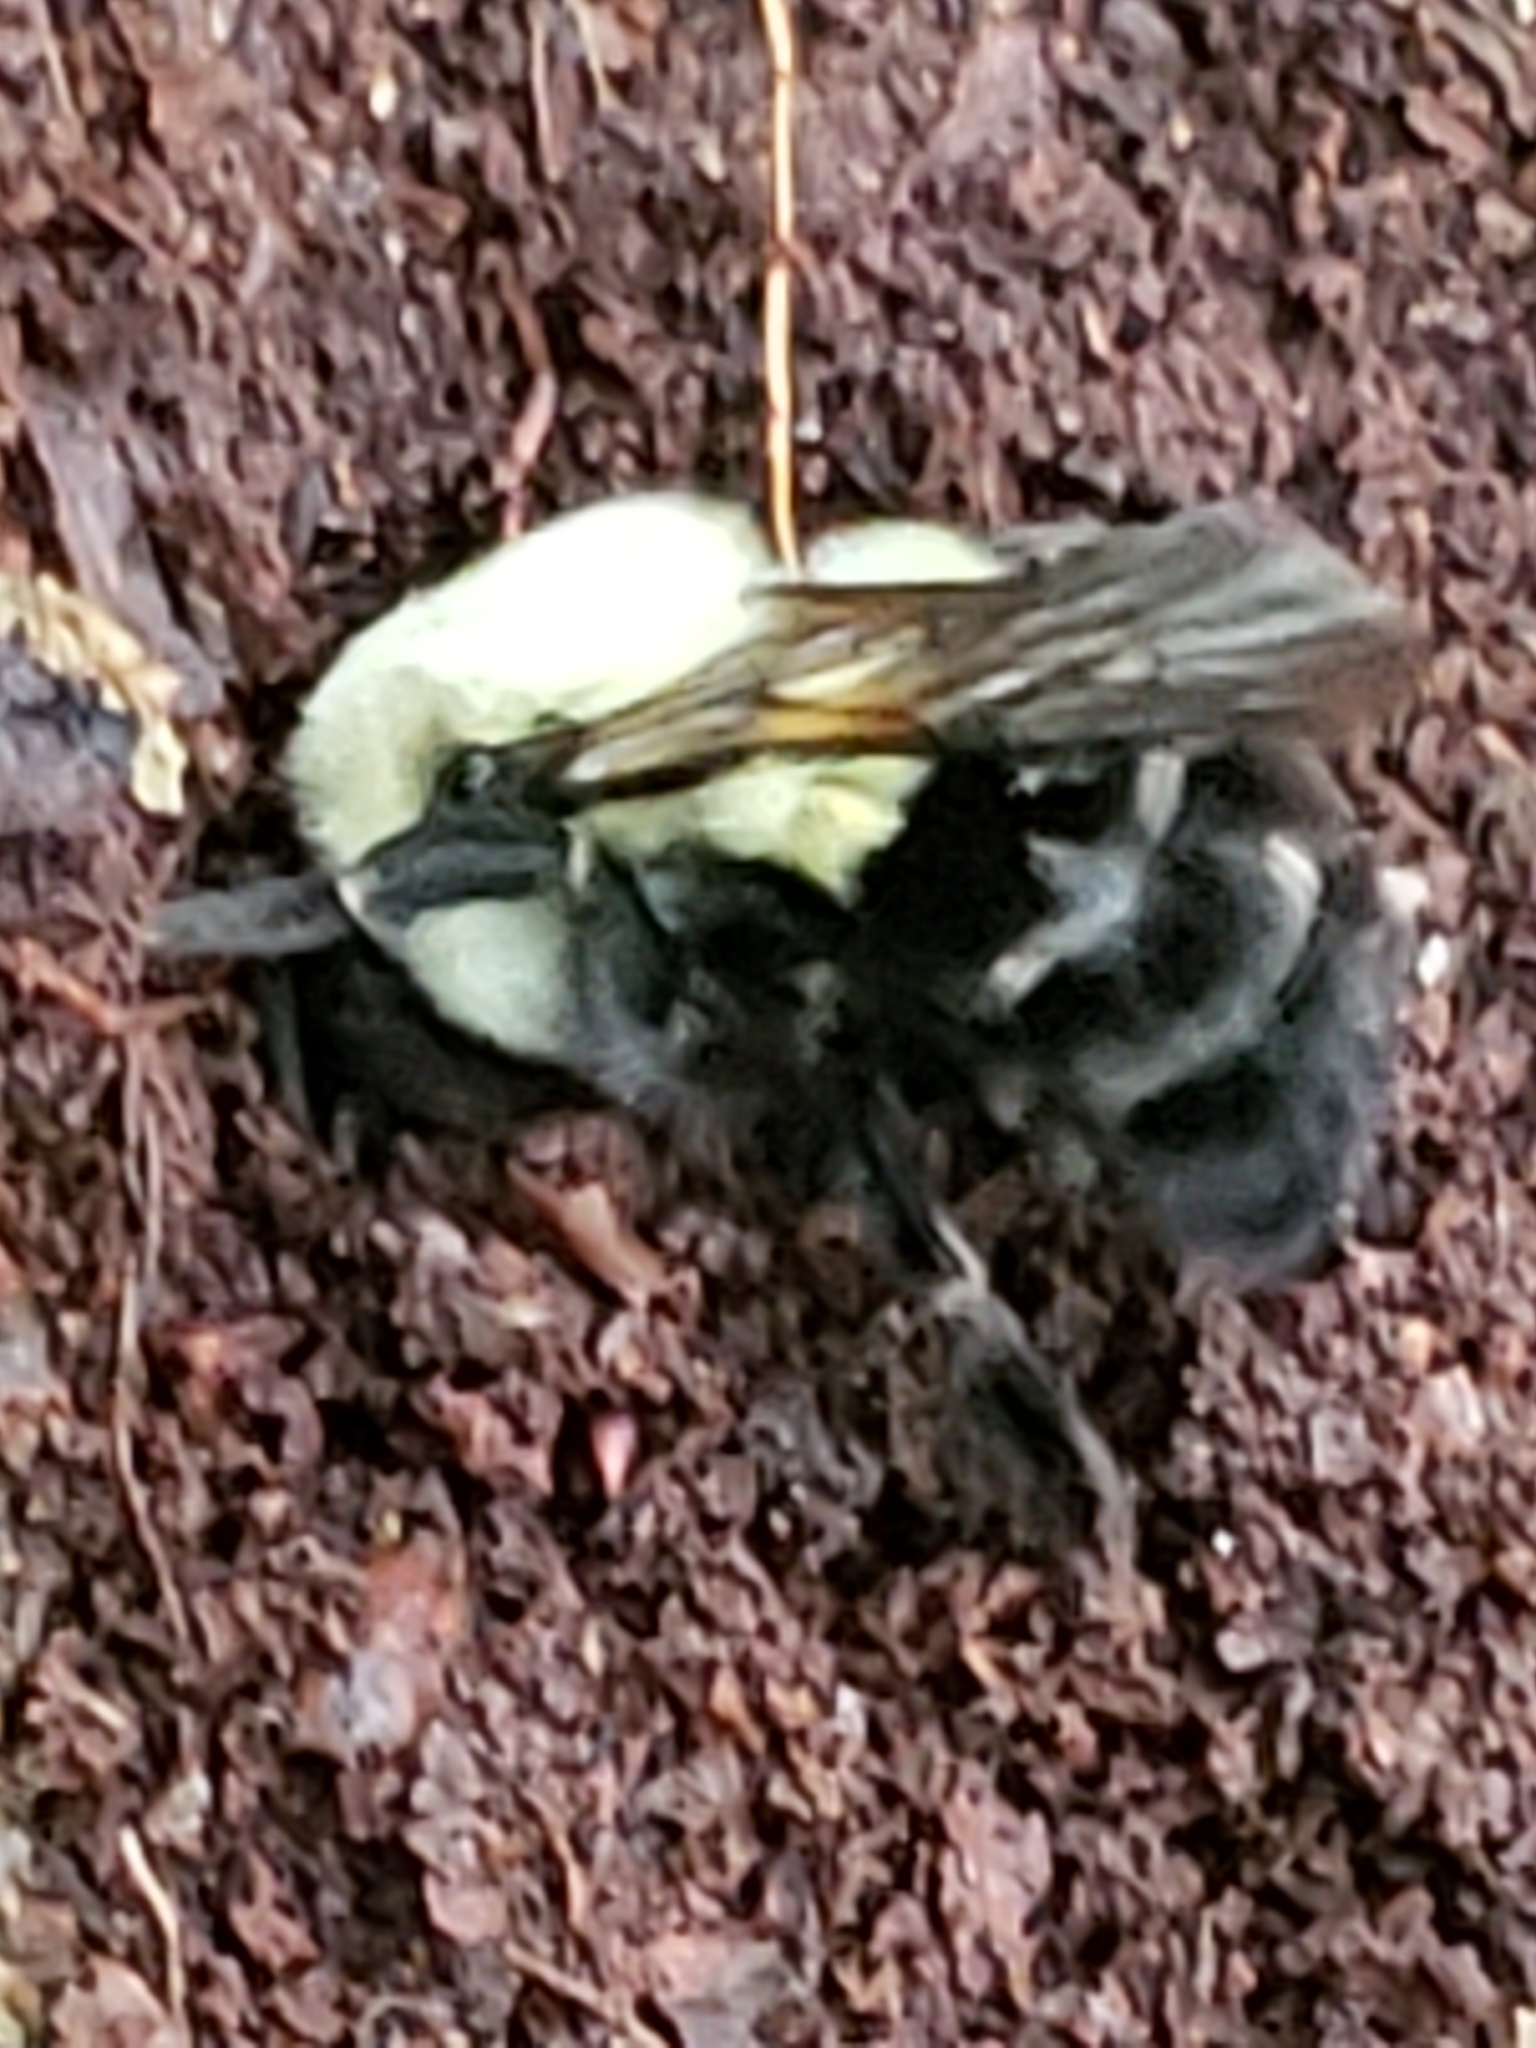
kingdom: Animalia
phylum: Arthropoda
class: Insecta
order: Hymenoptera
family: Apidae
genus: Bombus
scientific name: Bombus impatiens
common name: Common eastern bumble bee
